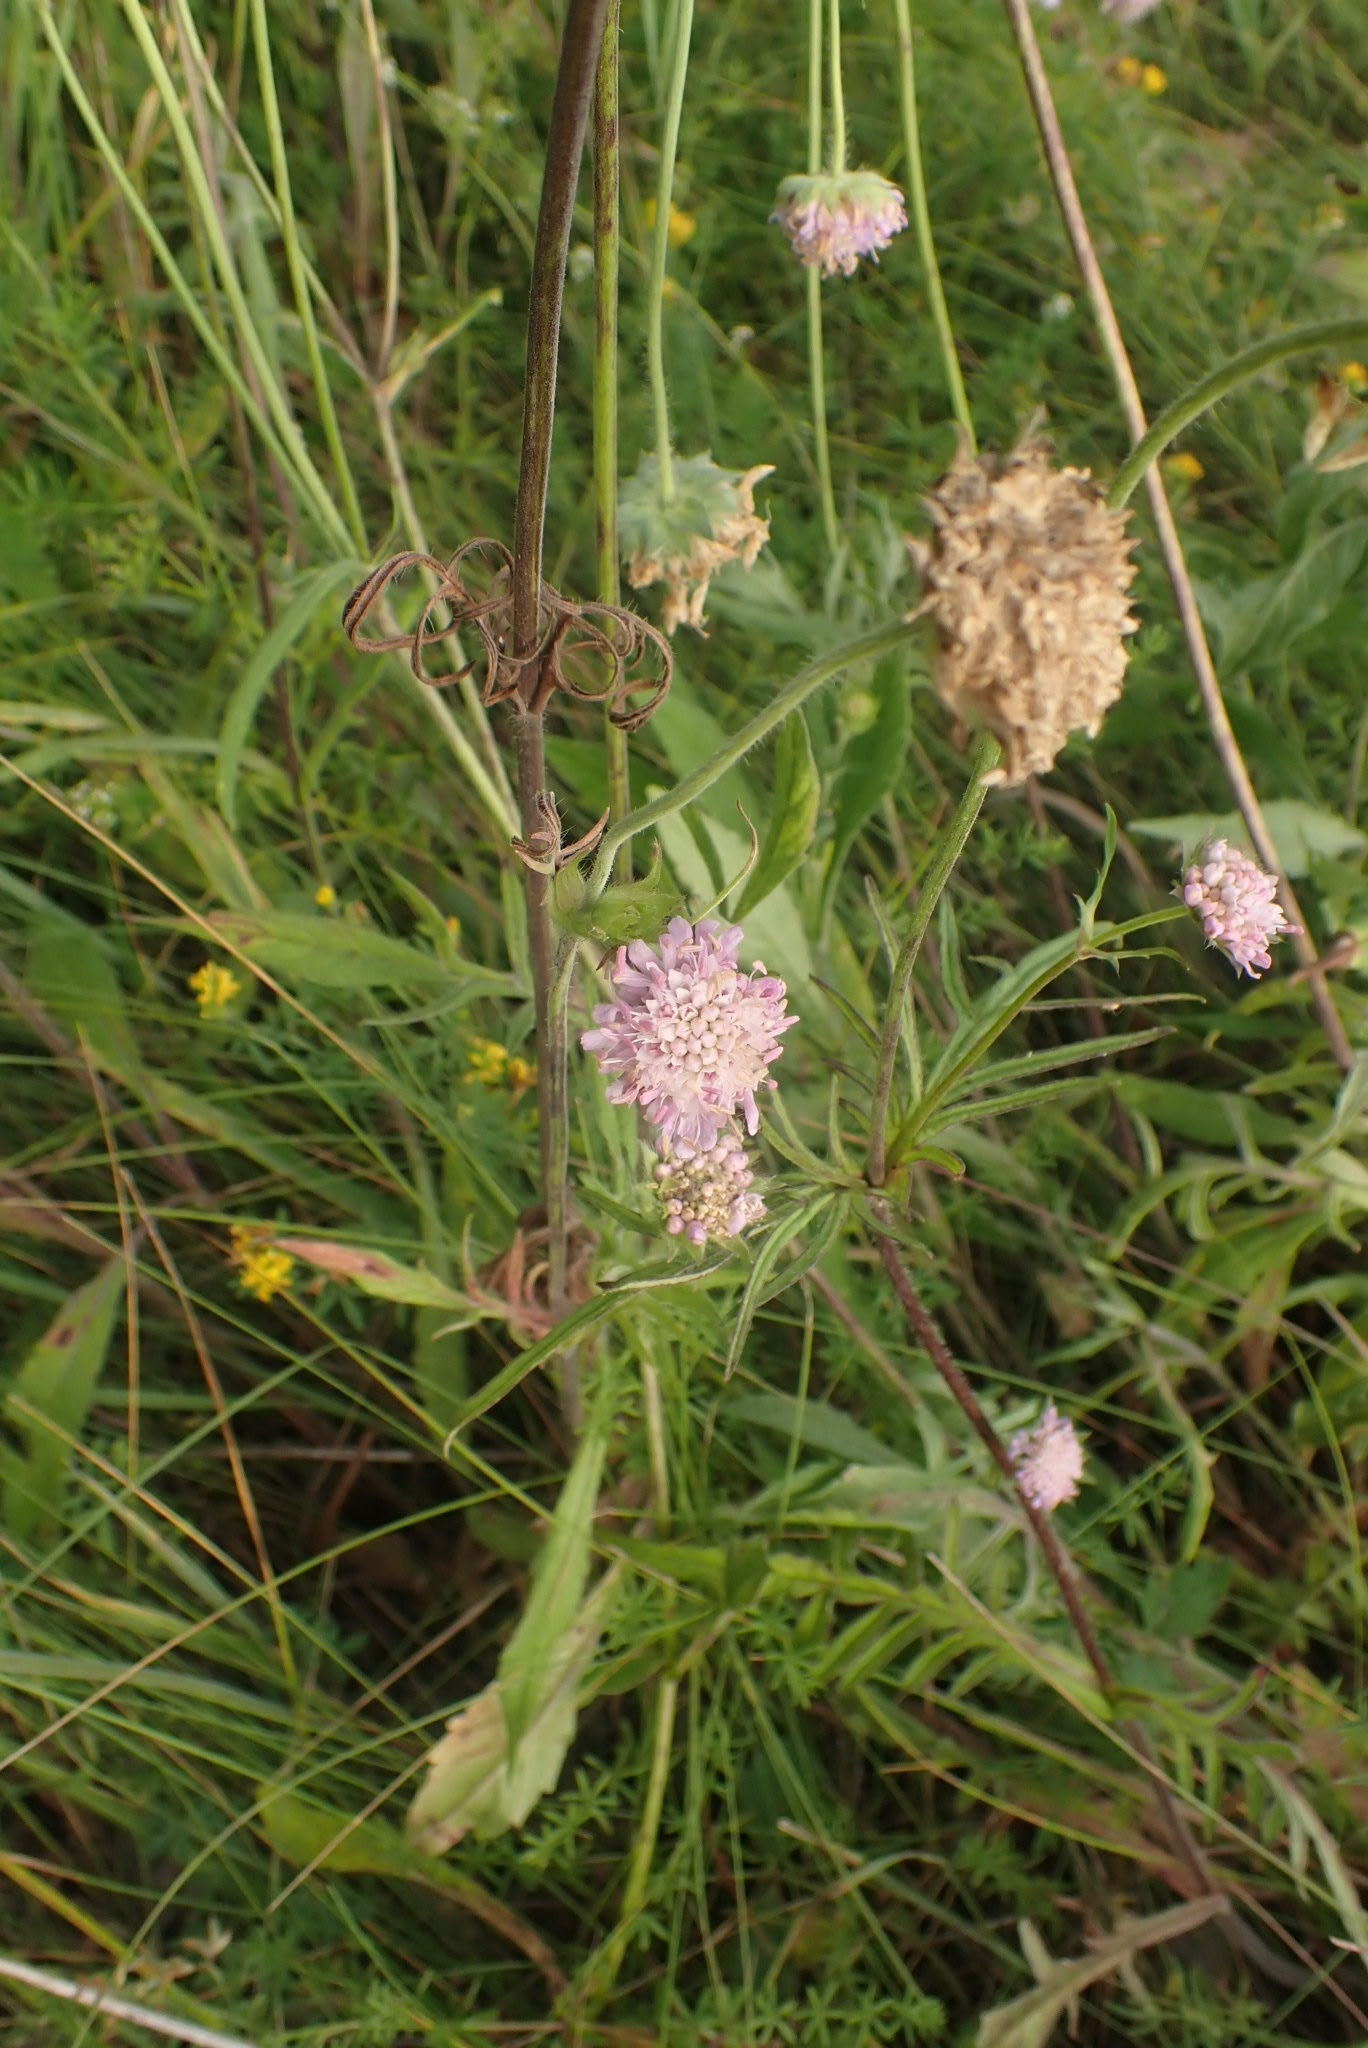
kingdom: Plantae
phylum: Tracheophyta
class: Magnoliopsida
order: Dipsacales
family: Caprifoliaceae
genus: Knautia
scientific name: Knautia arvensis
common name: Field scabiosa
